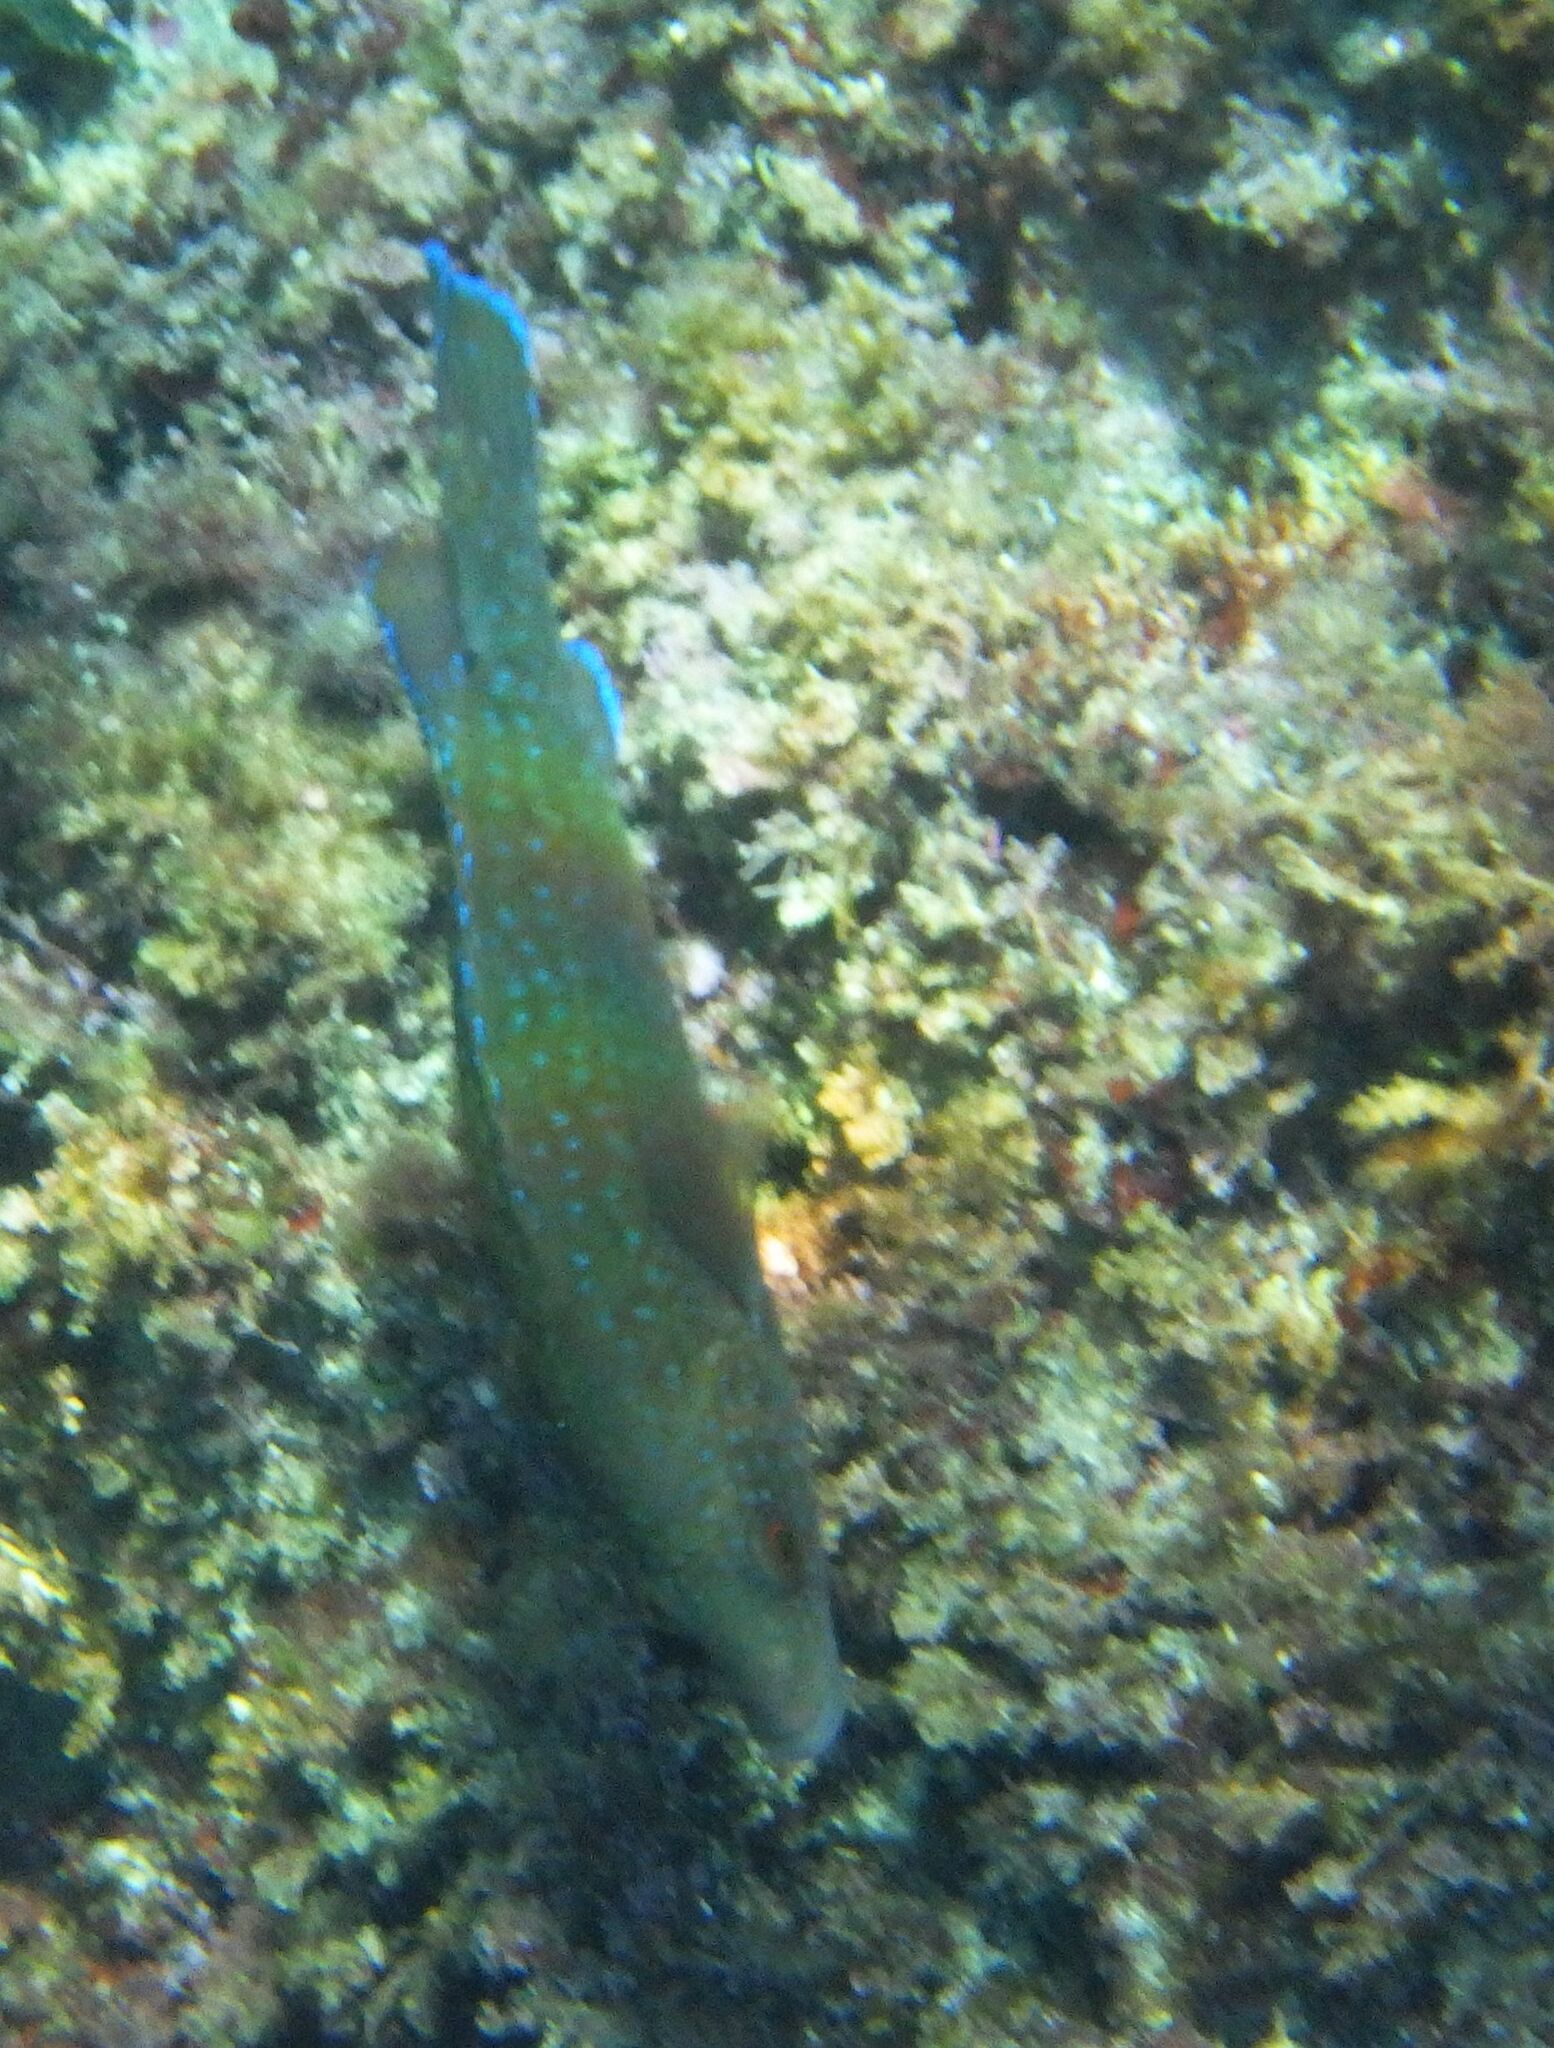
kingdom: Animalia
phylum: Chordata
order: Perciformes
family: Labridae
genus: Labrus
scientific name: Labrus merula
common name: Brown wrasse
